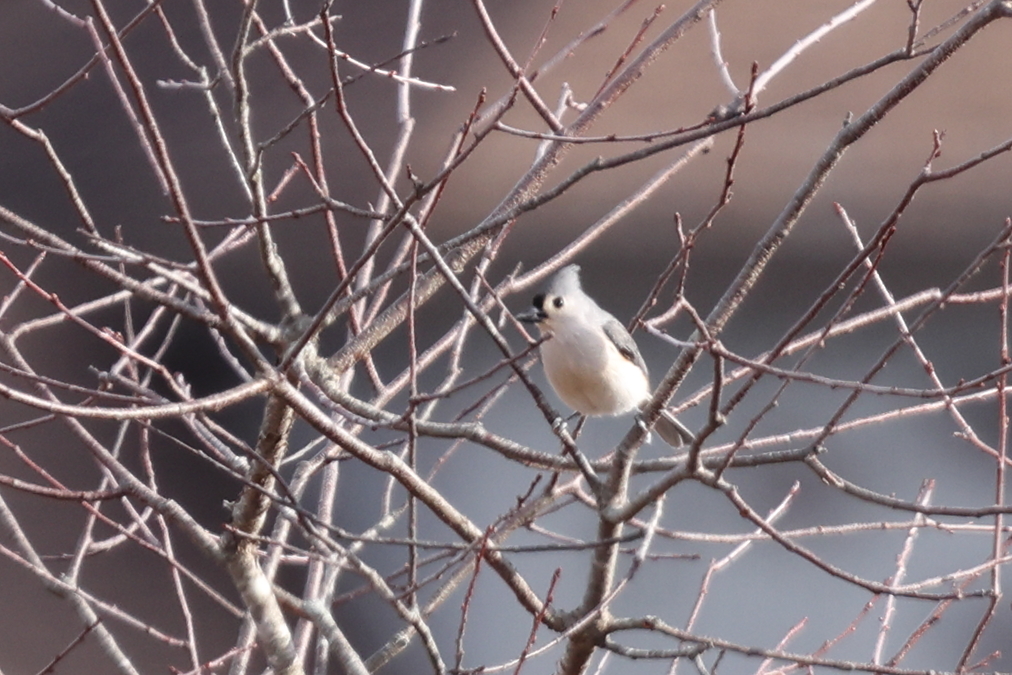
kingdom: Animalia
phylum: Chordata
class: Aves
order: Passeriformes
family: Paridae
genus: Baeolophus
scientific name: Baeolophus bicolor
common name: Tufted titmouse
